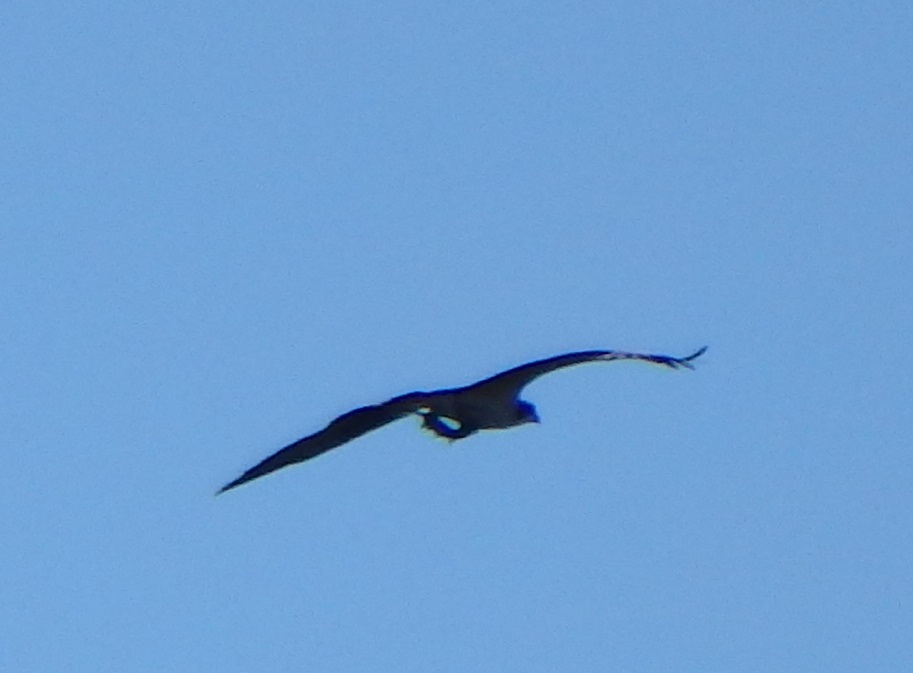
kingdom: Animalia
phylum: Chordata
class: Aves
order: Accipitriformes
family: Pandionidae
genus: Pandion
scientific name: Pandion haliaetus
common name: Osprey
